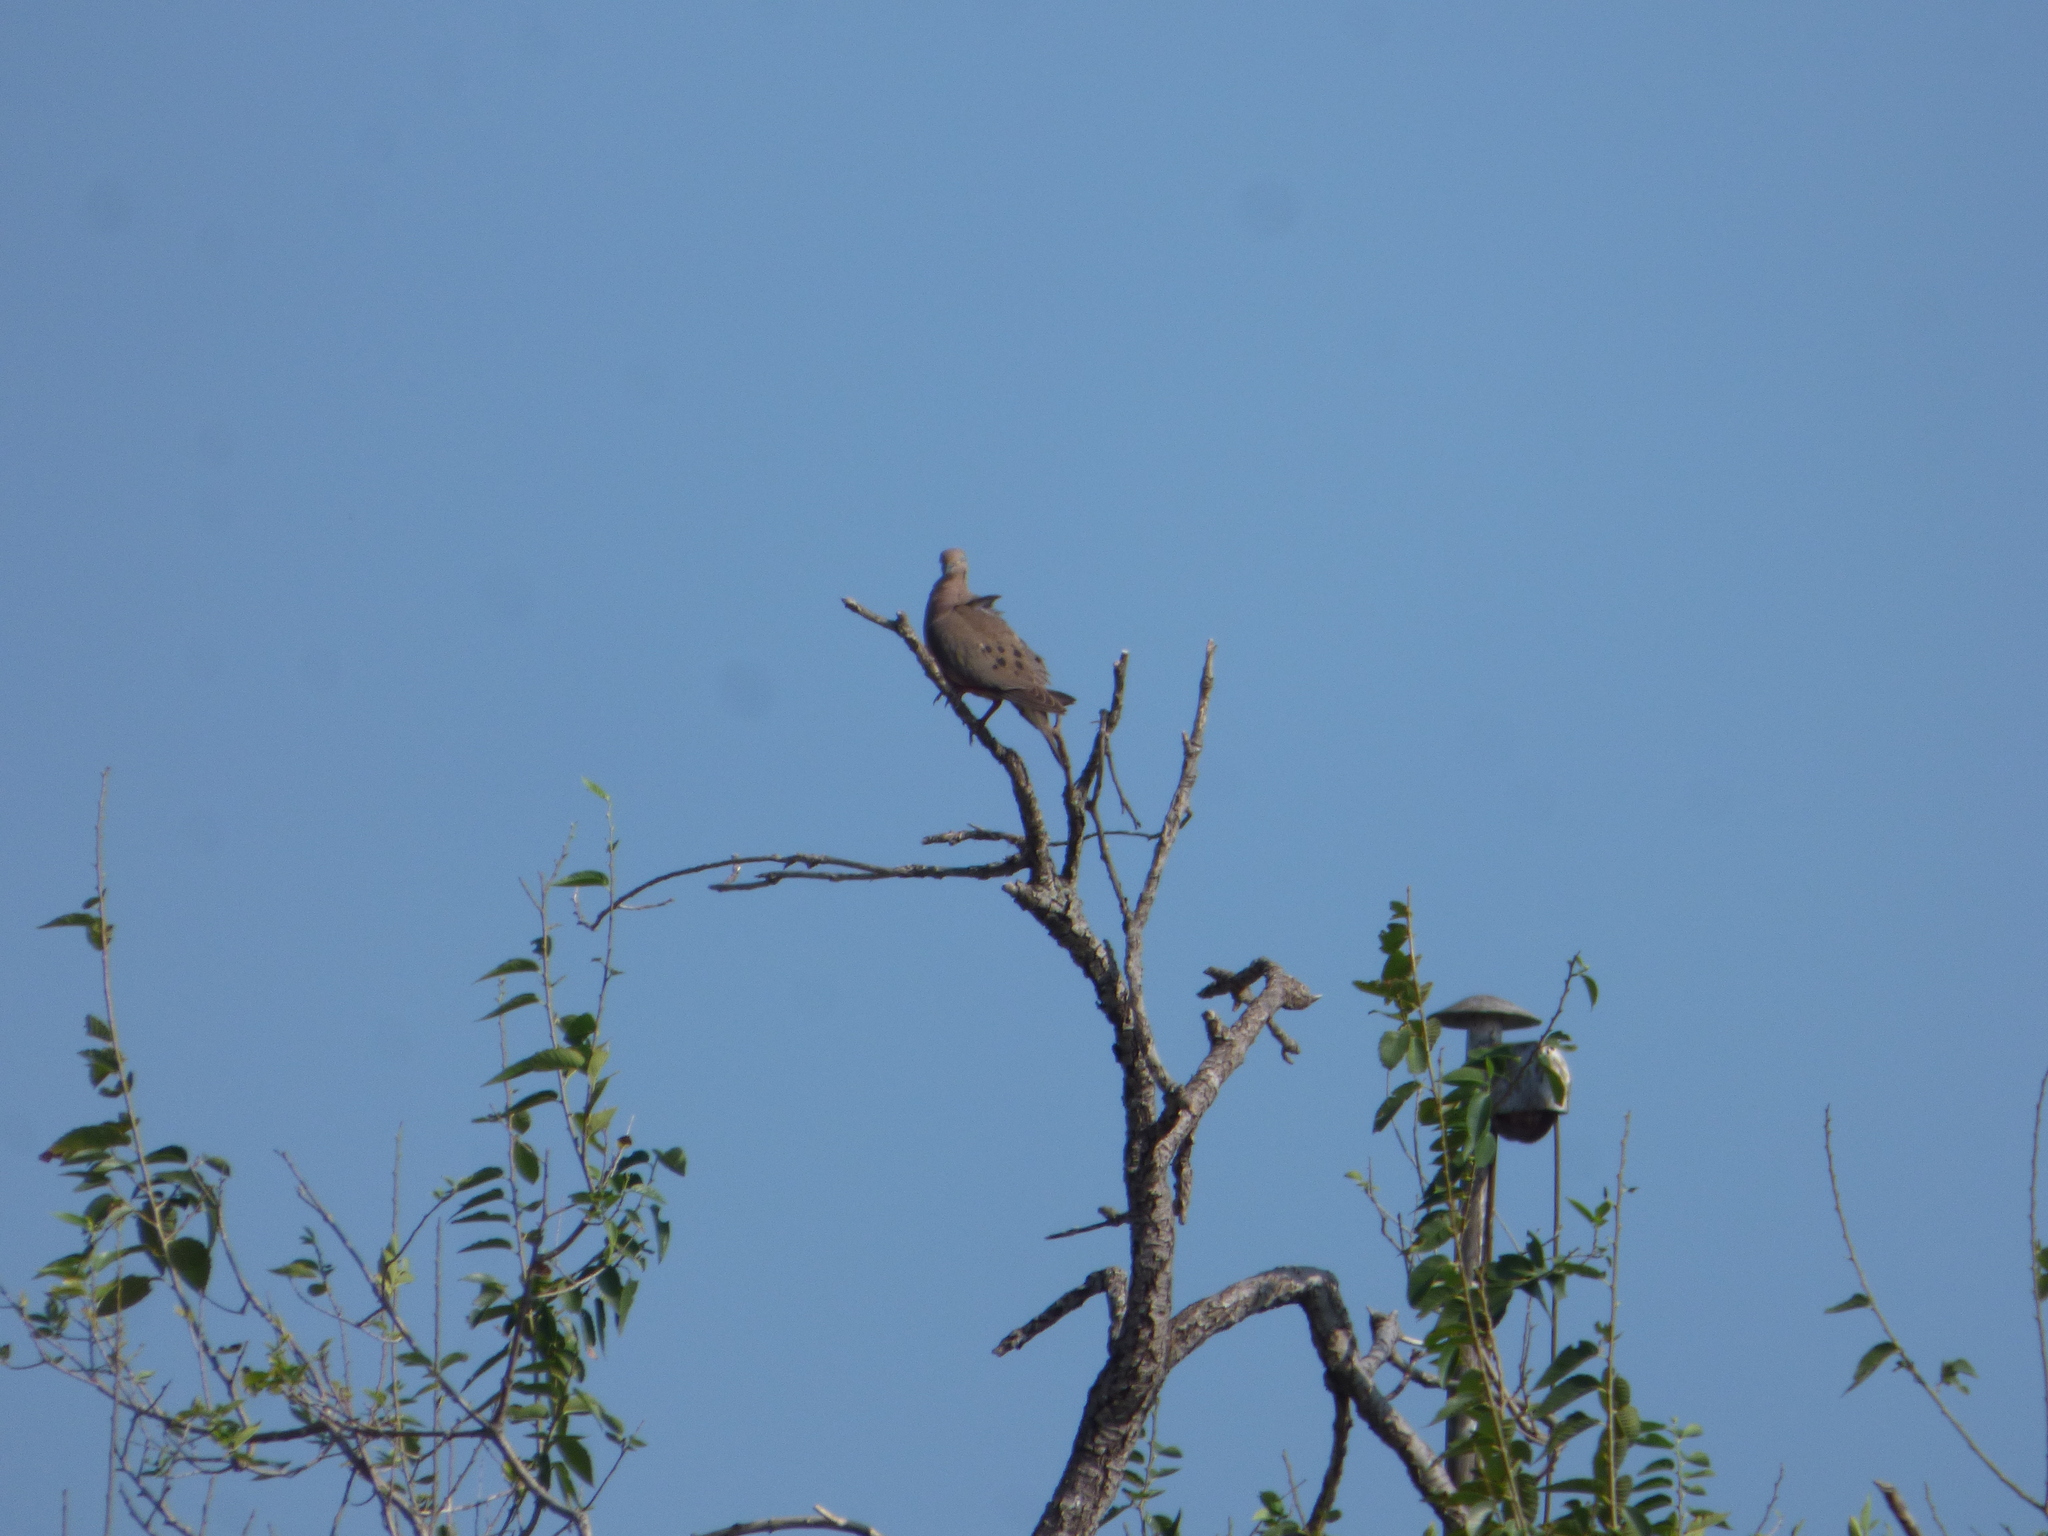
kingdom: Animalia
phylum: Chordata
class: Aves
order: Columbiformes
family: Columbidae
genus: Zenaida
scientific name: Zenaida auriculata
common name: Eared dove
